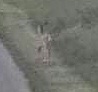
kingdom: Animalia
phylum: Chordata
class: Mammalia
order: Artiodactyla
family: Cervidae
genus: Odocoileus
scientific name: Odocoileus virginianus
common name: White-tailed deer
